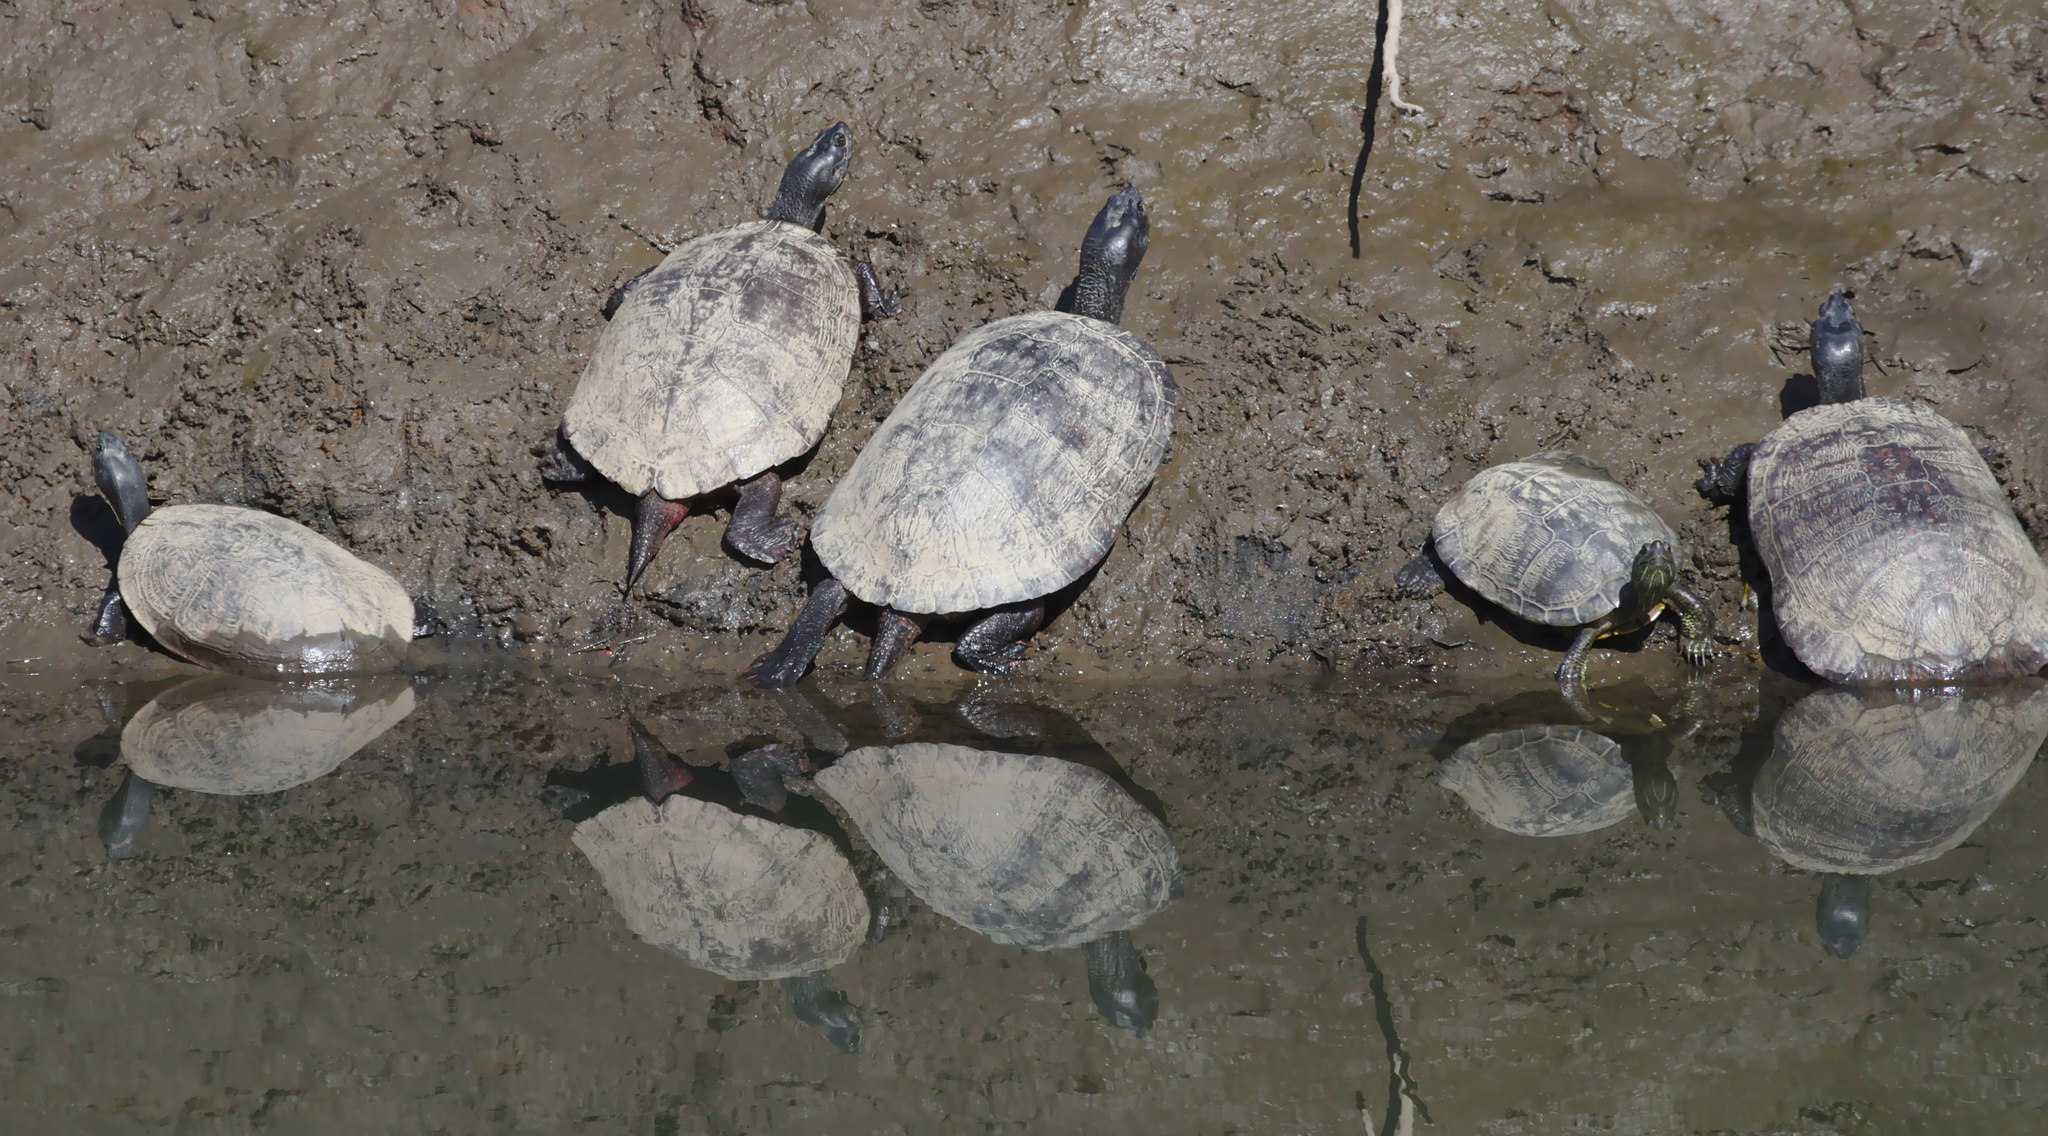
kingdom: Animalia
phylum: Chordata
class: Testudines
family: Emydidae
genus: Pseudemys
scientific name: Pseudemys rubriventris
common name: American red-bellied turtle
